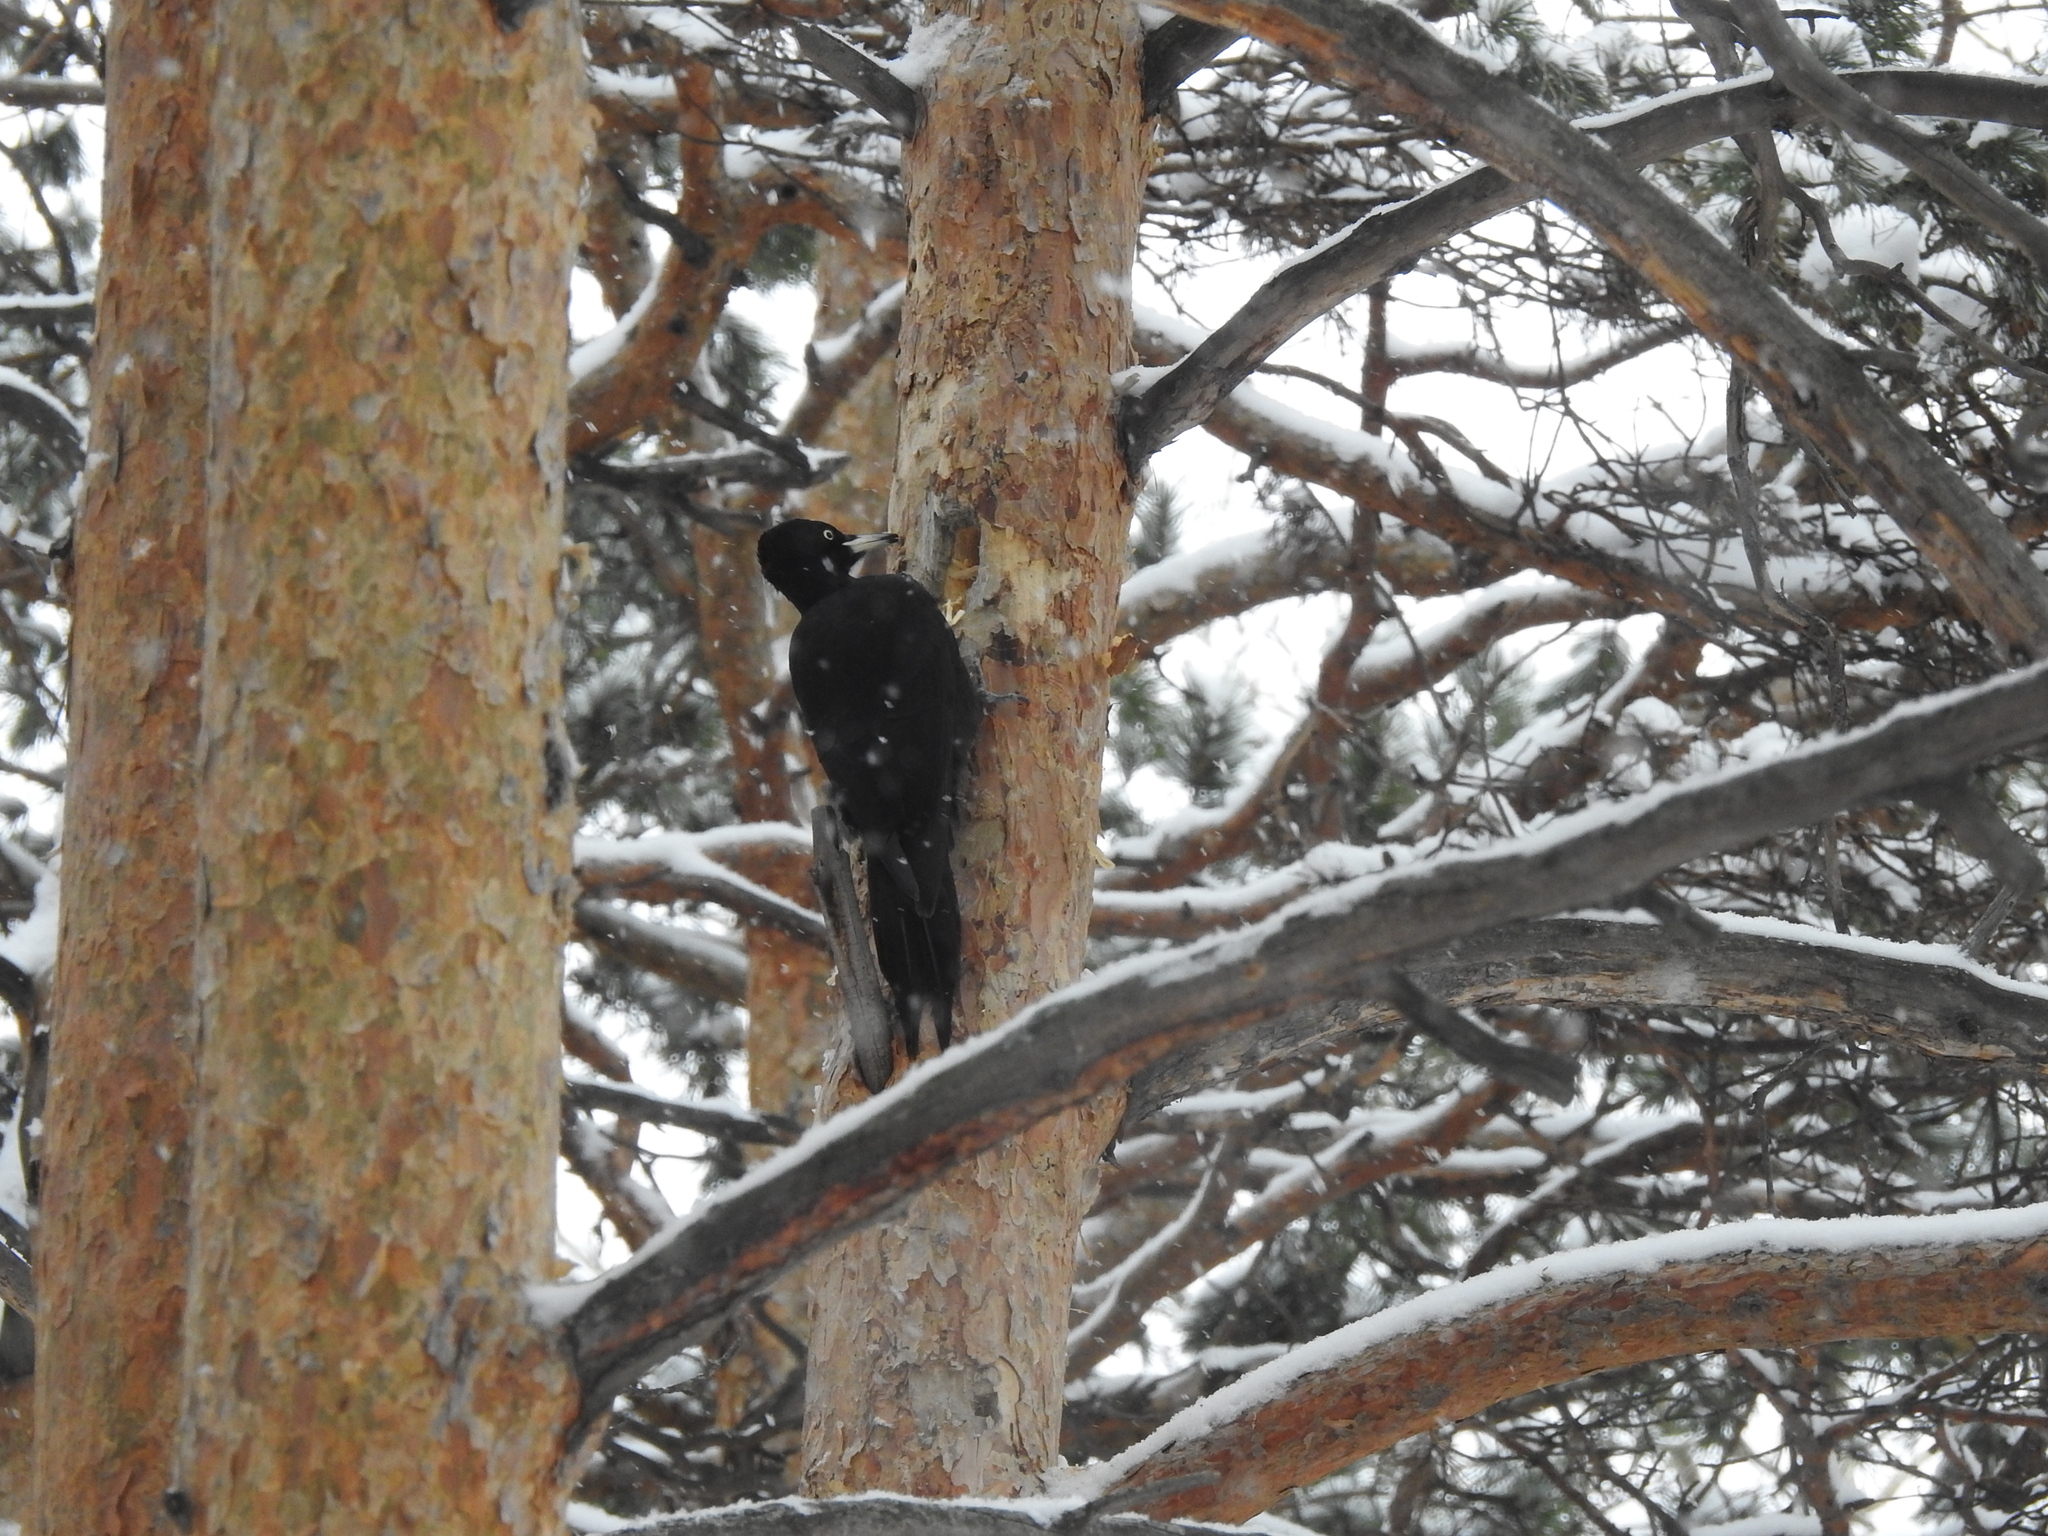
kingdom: Animalia
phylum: Chordata
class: Aves
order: Piciformes
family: Picidae
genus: Dryocopus
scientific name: Dryocopus martius
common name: Black woodpecker
